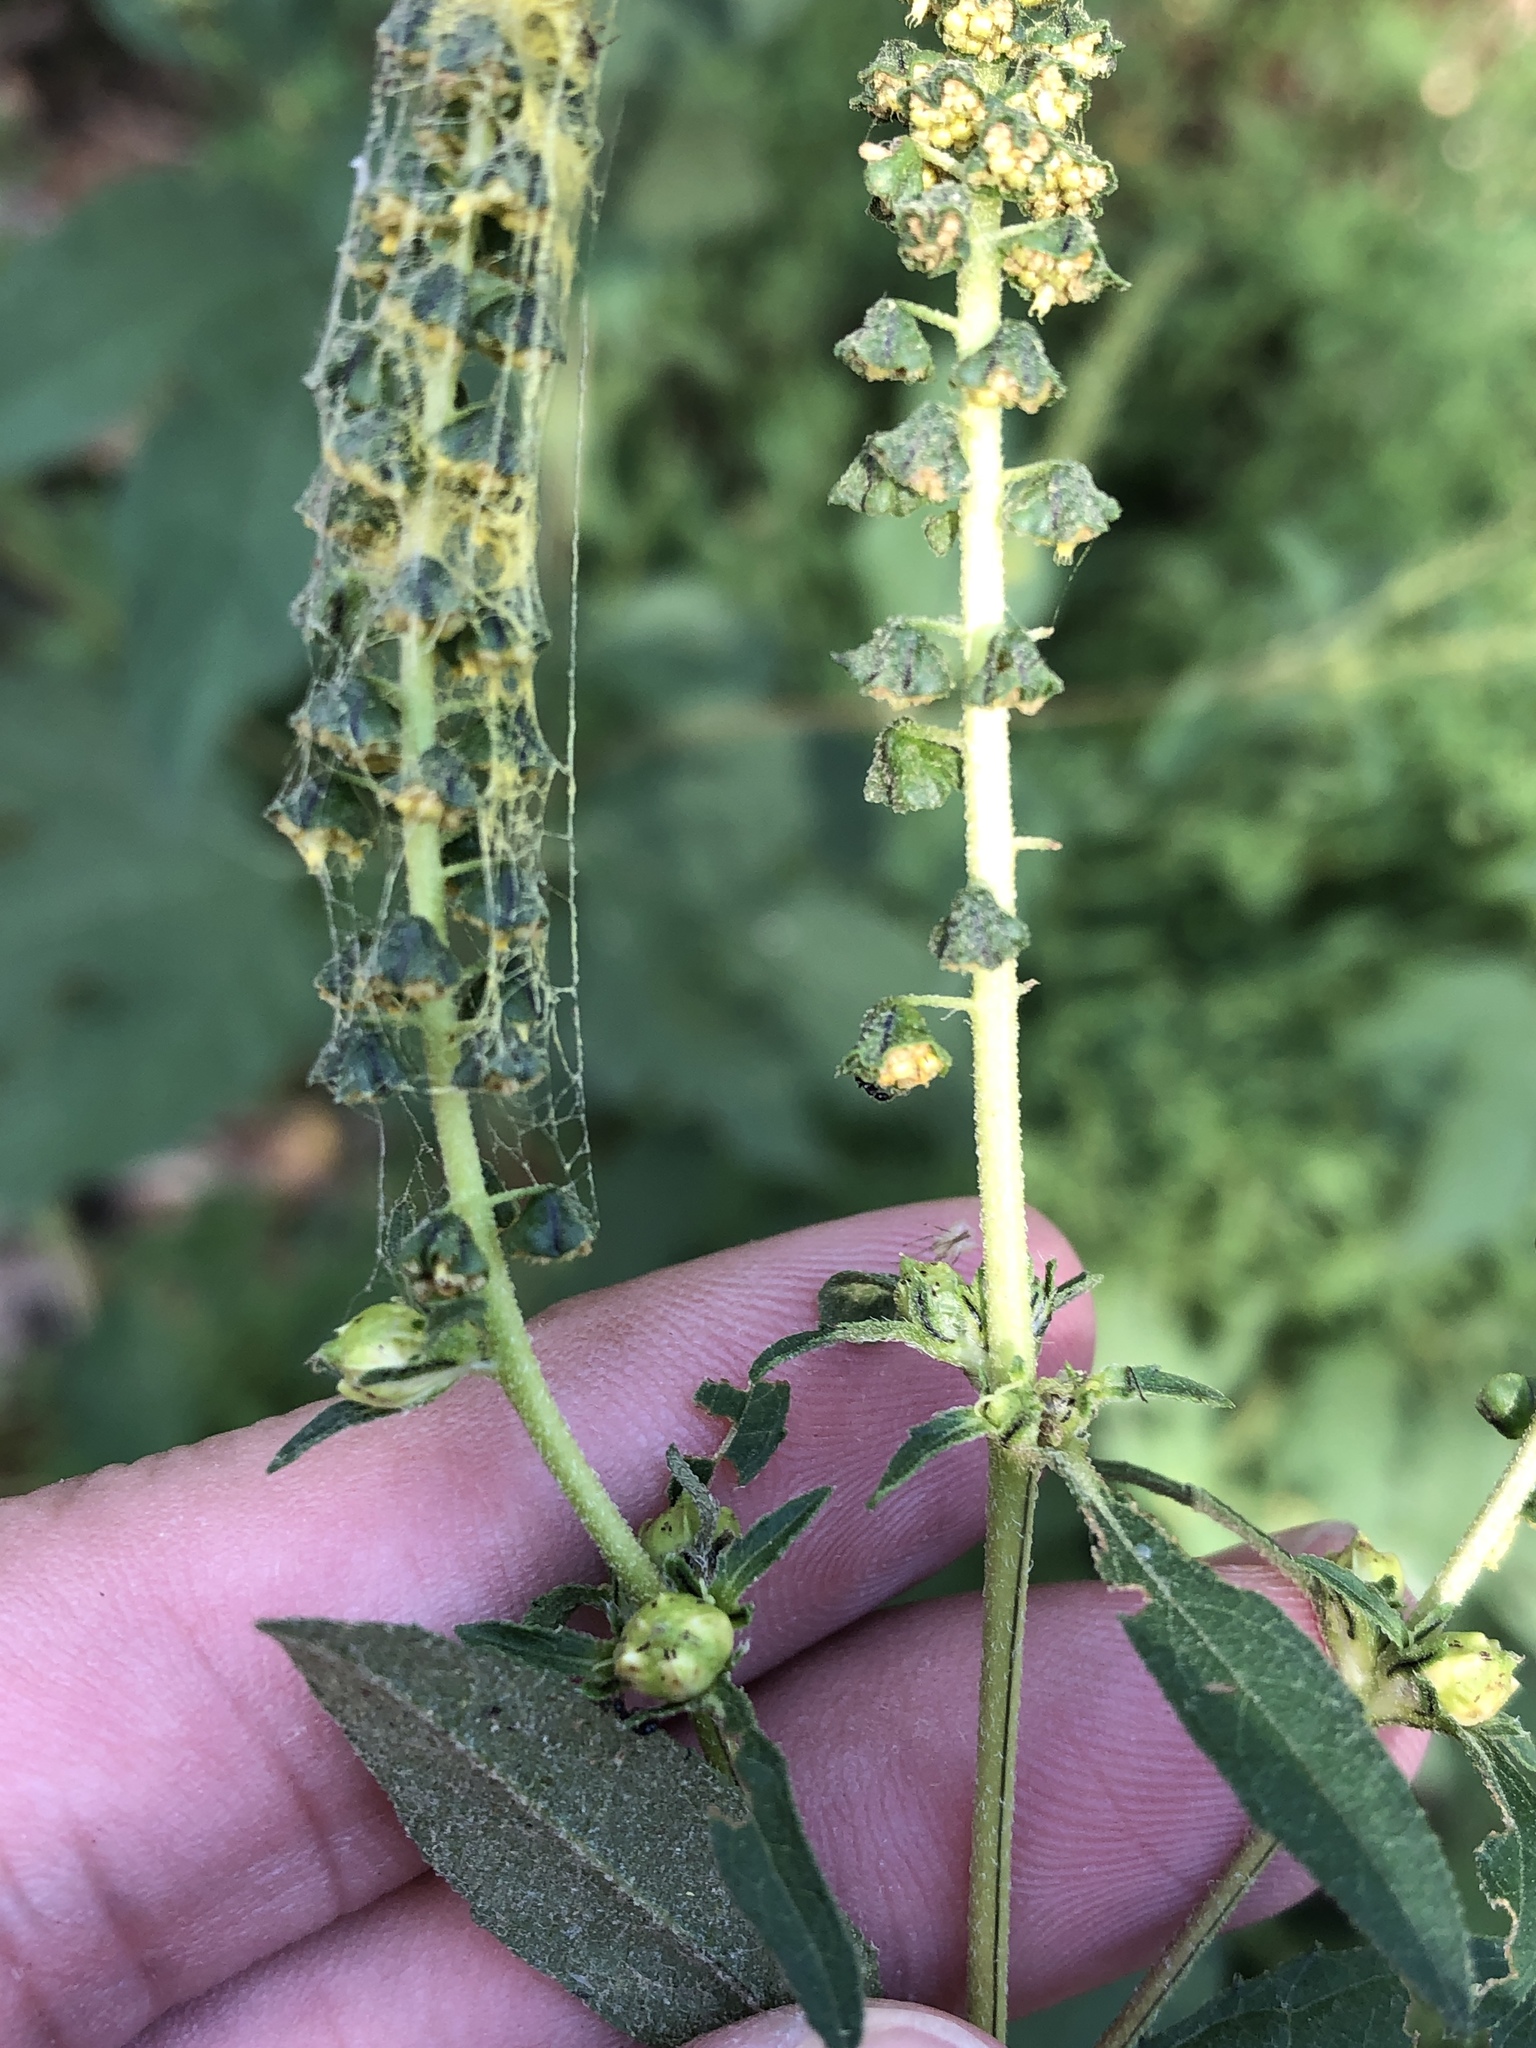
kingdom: Plantae
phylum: Tracheophyta
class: Magnoliopsida
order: Asterales
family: Asteraceae
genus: Ambrosia
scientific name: Ambrosia trifida
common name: Giant ragweed
